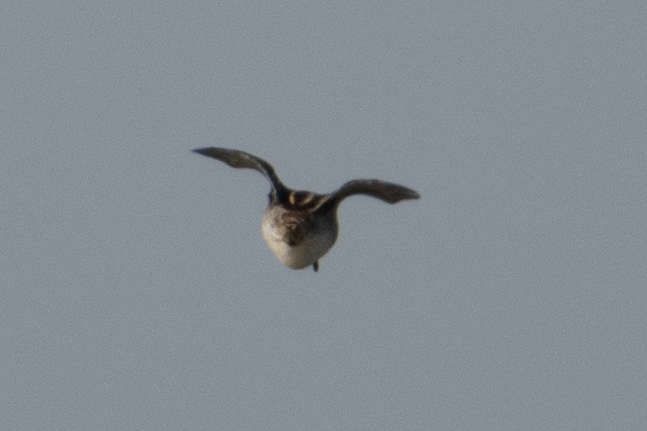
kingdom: Animalia
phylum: Chordata
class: Aves
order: Charadriiformes
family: Scolopacidae
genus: Gallinago
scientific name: Gallinago delicata
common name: Wilson's snipe
